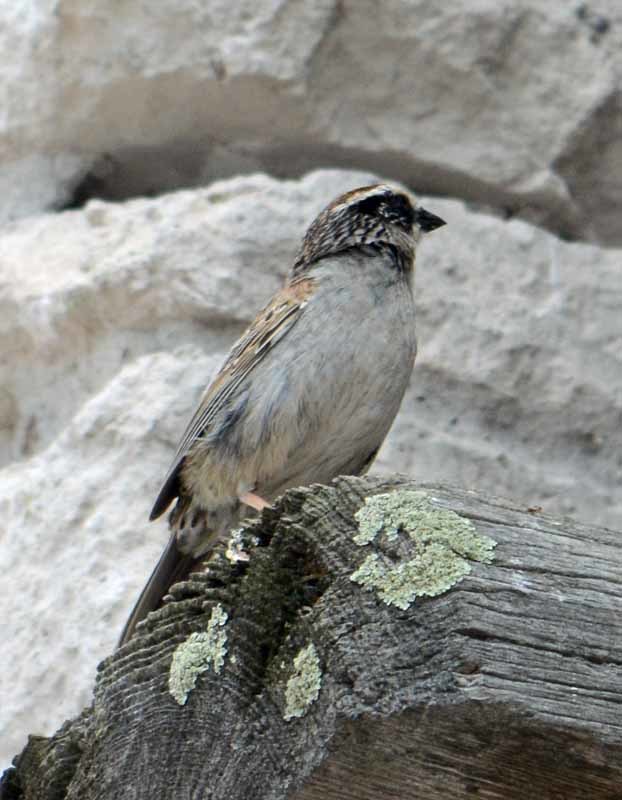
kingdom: Animalia
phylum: Chordata
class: Aves
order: Passeriformes
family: Passerellidae
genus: Oriturus
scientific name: Oriturus superciliosus
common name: Striped sparrow
